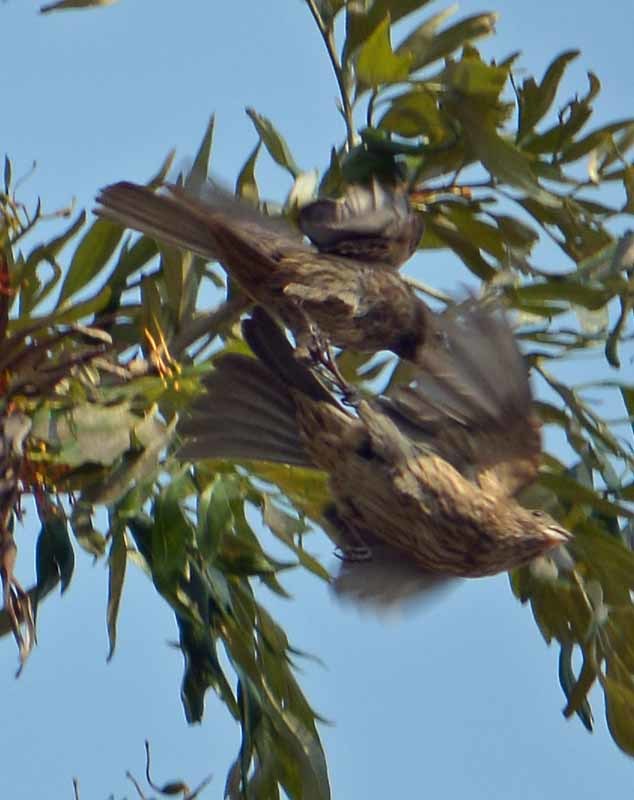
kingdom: Animalia
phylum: Chordata
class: Aves
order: Passeriformes
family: Fringillidae
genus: Haemorhous
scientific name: Haemorhous mexicanus
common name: House finch
